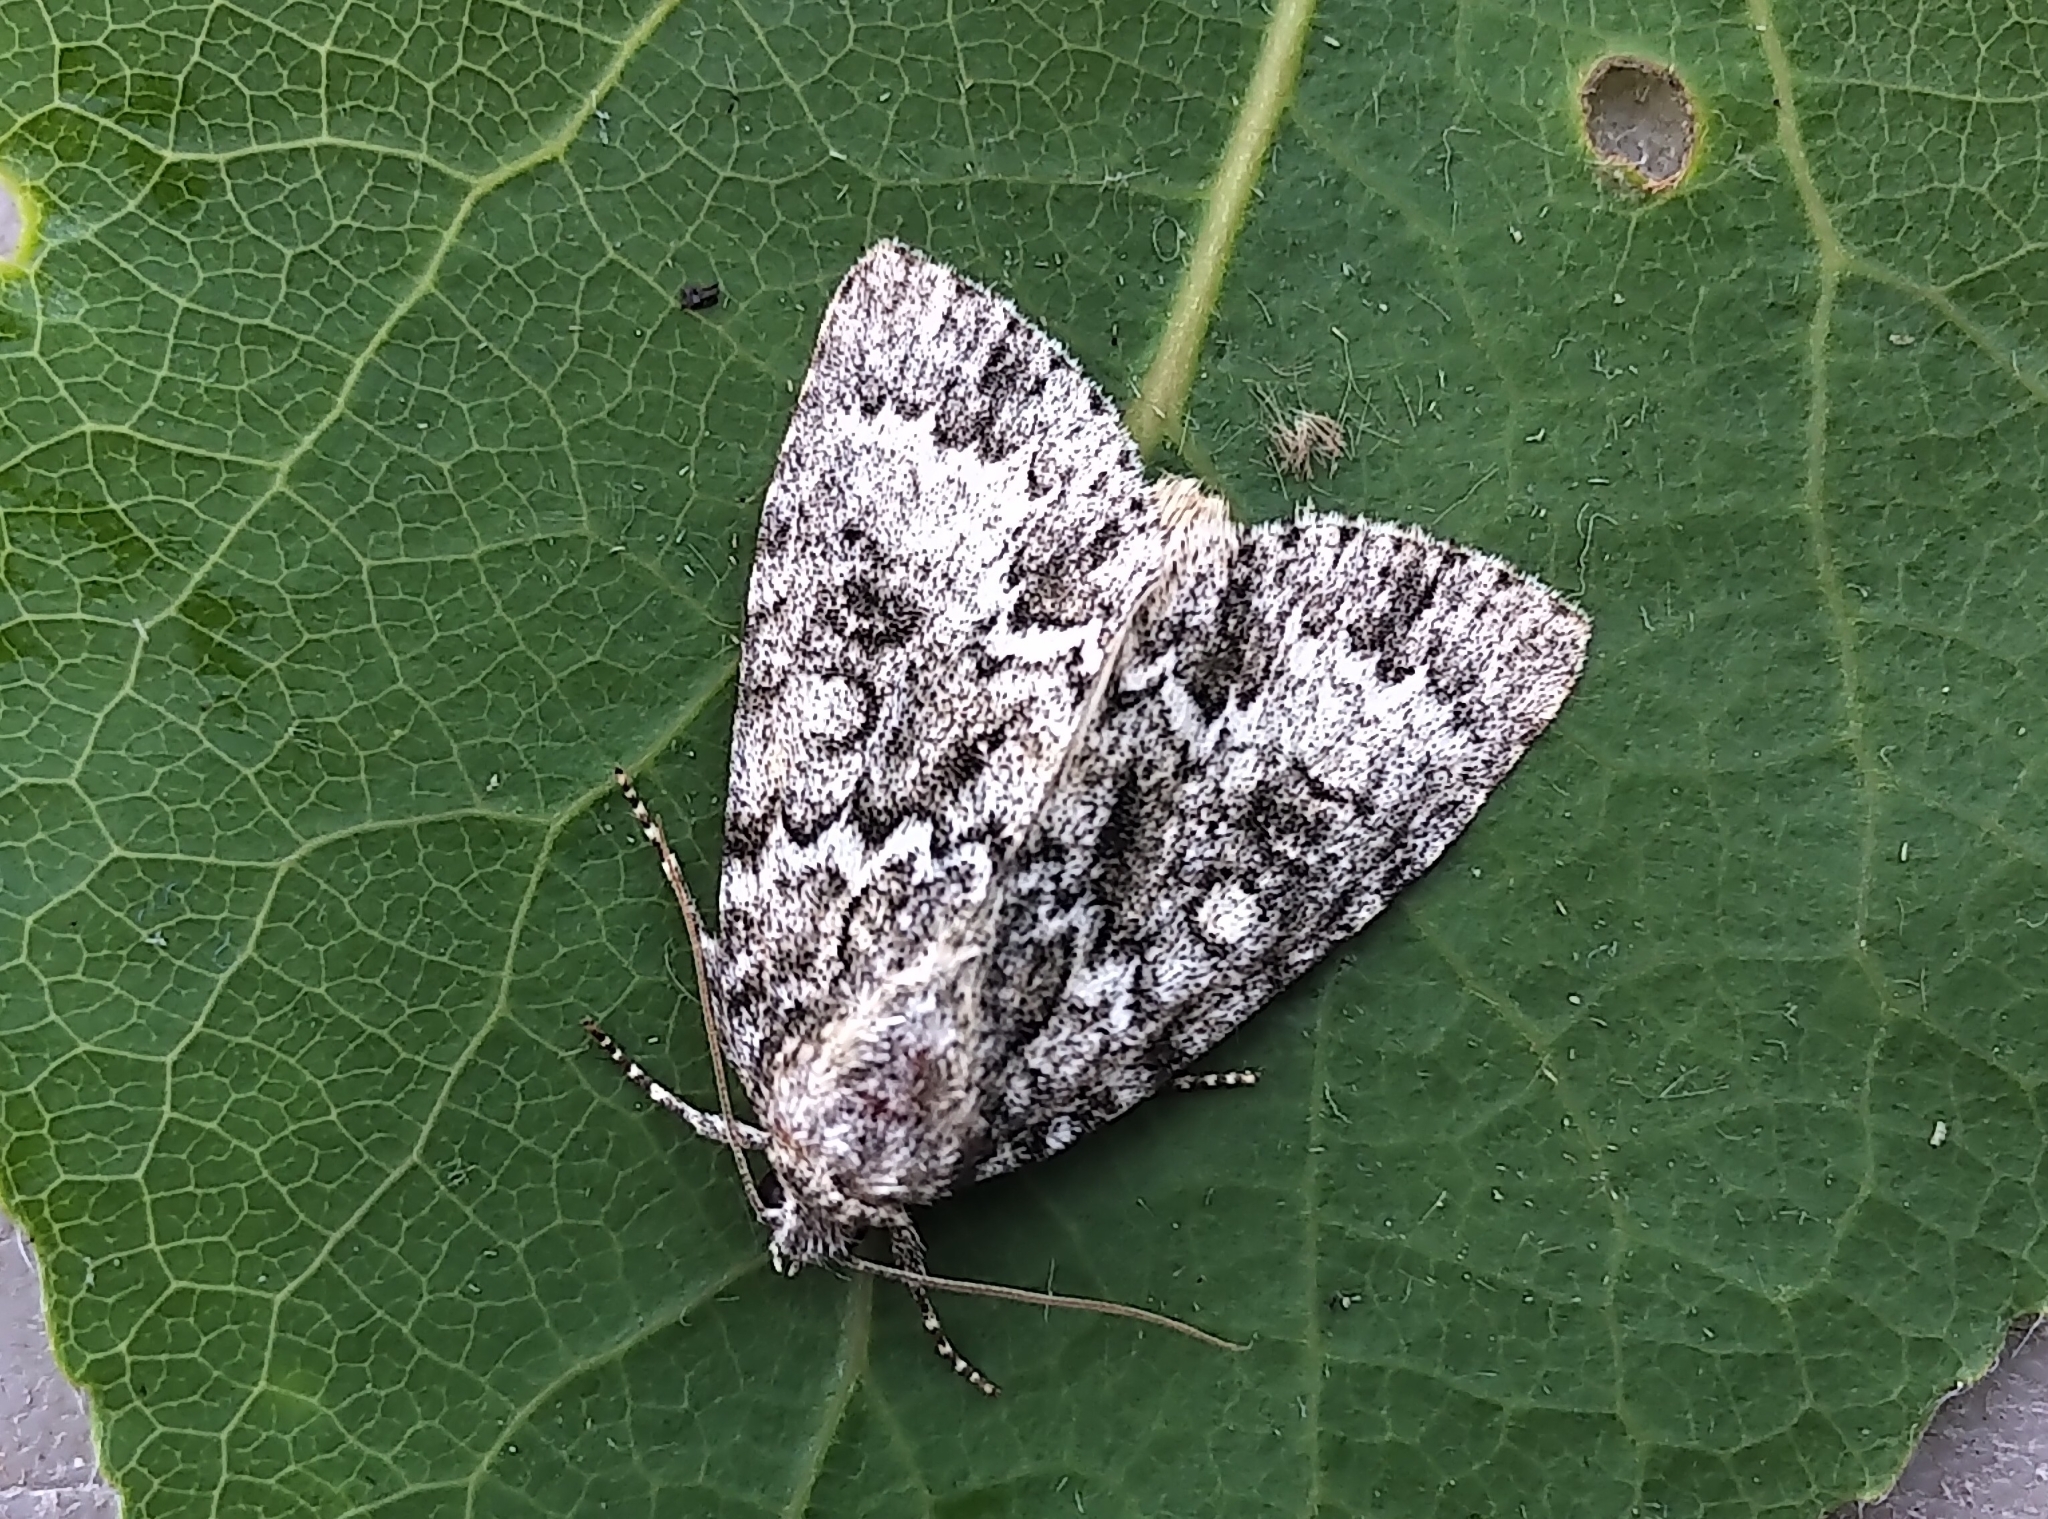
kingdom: Animalia
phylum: Arthropoda
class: Insecta
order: Lepidoptera
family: Noctuidae
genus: Acronicta
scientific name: Acronicta fragilis
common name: Fragile dagger
